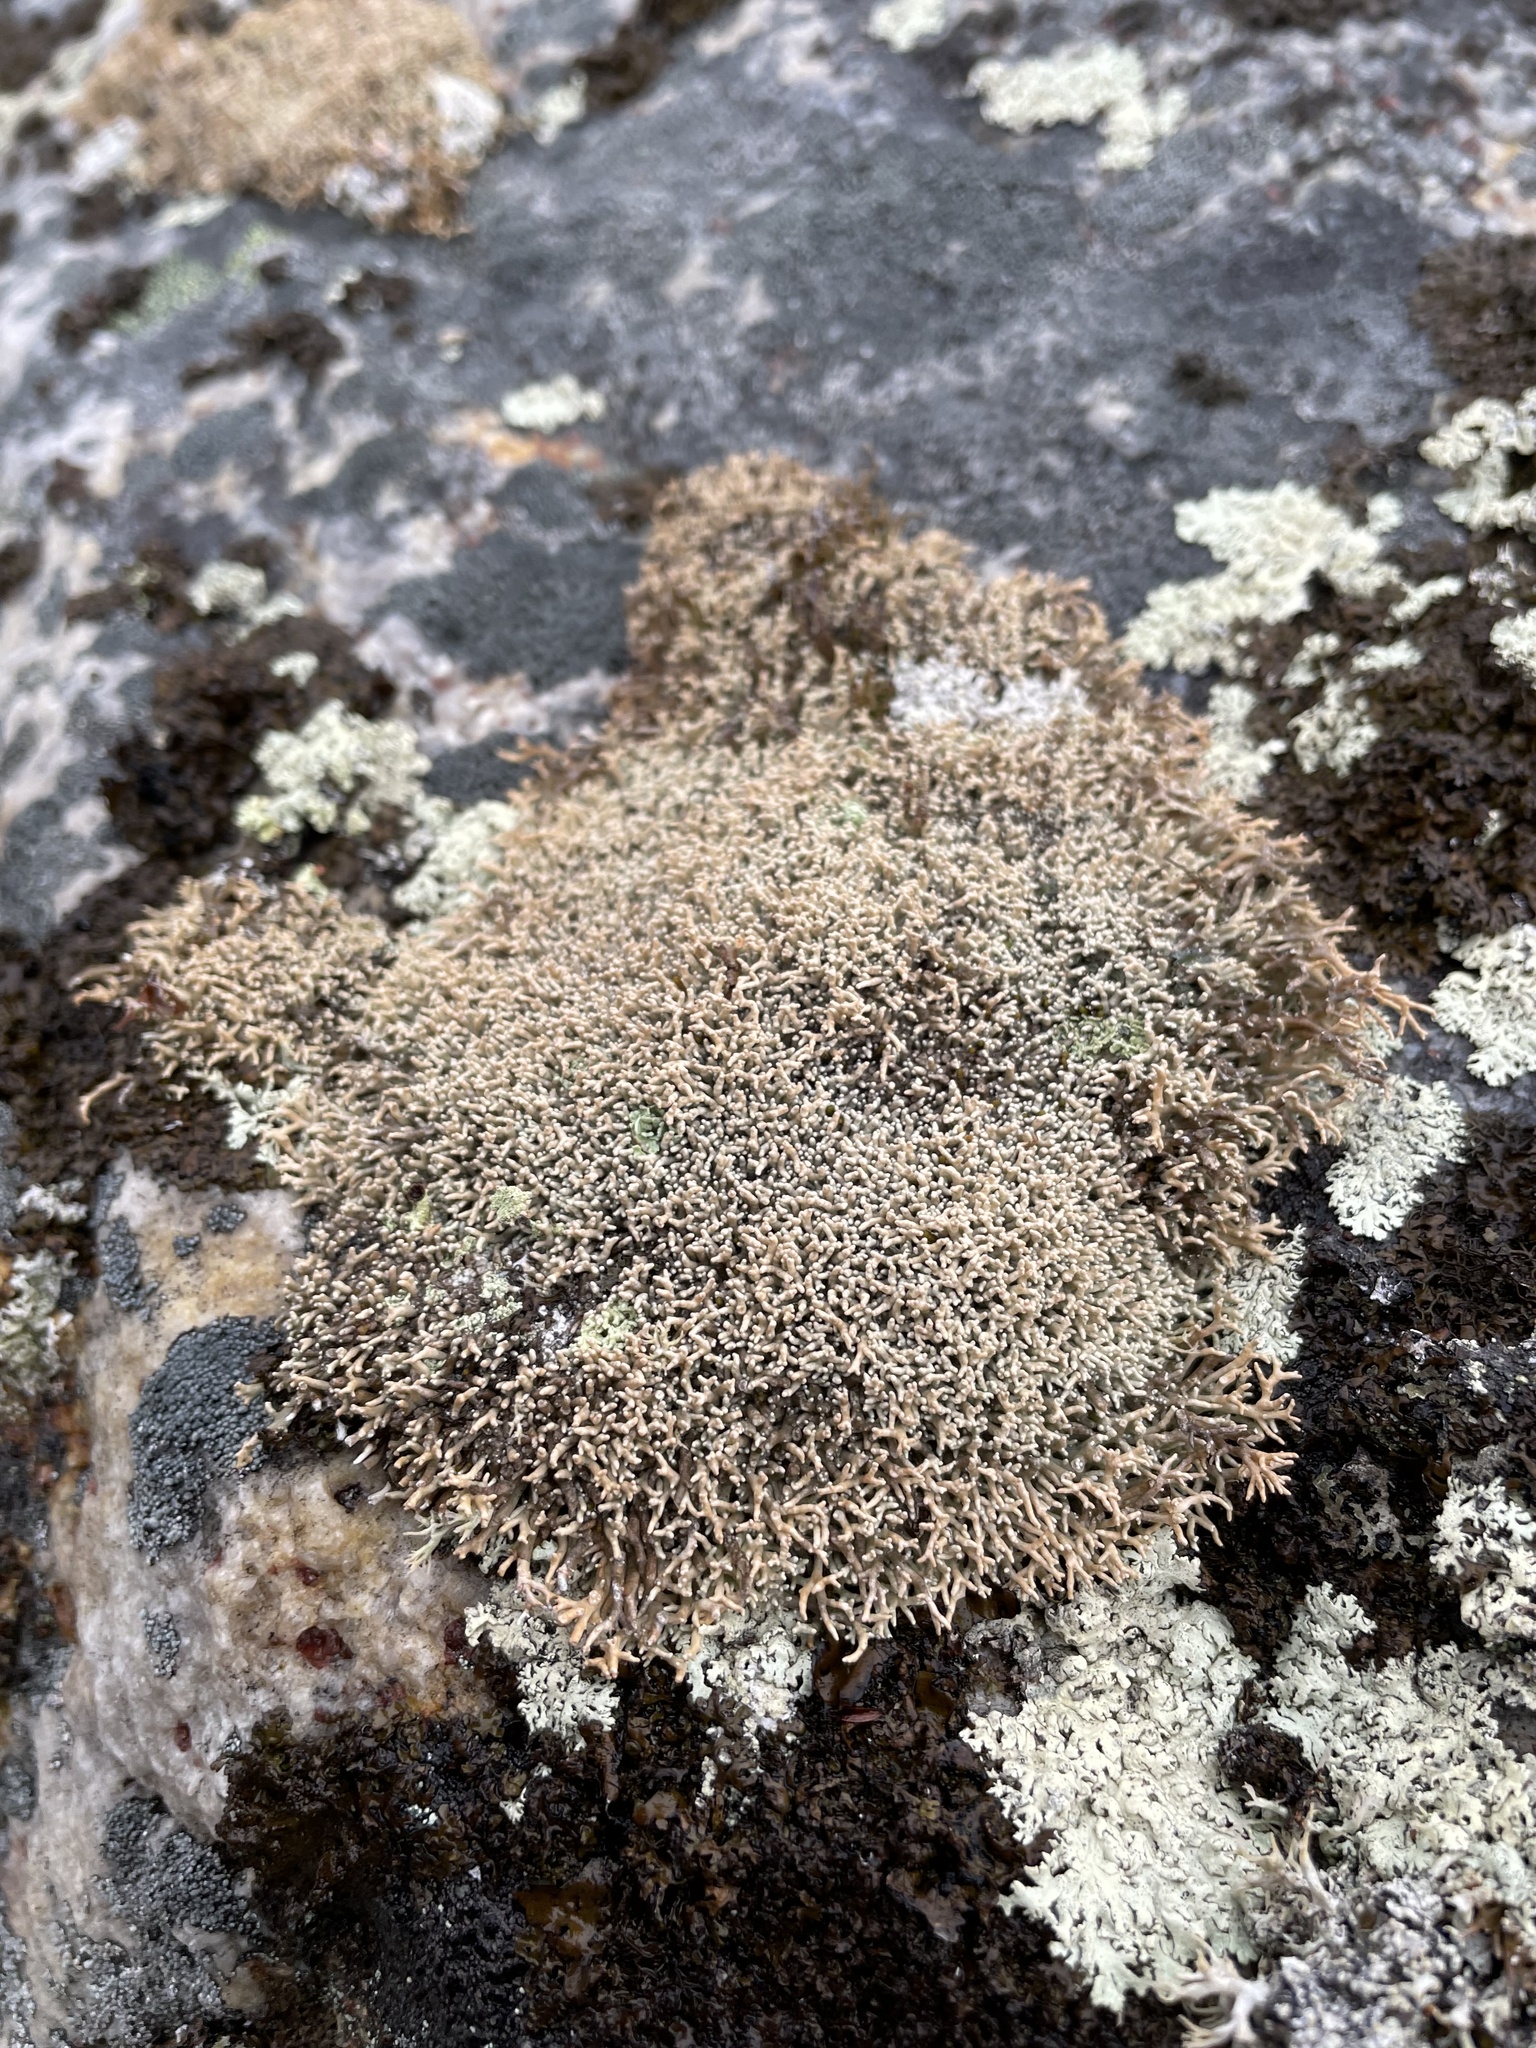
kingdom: Fungi
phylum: Ascomycota
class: Lecanoromycetes
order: Lecanorales
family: Sphaerophoraceae
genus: Sphaerophorus
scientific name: Sphaerophorus fragilis
